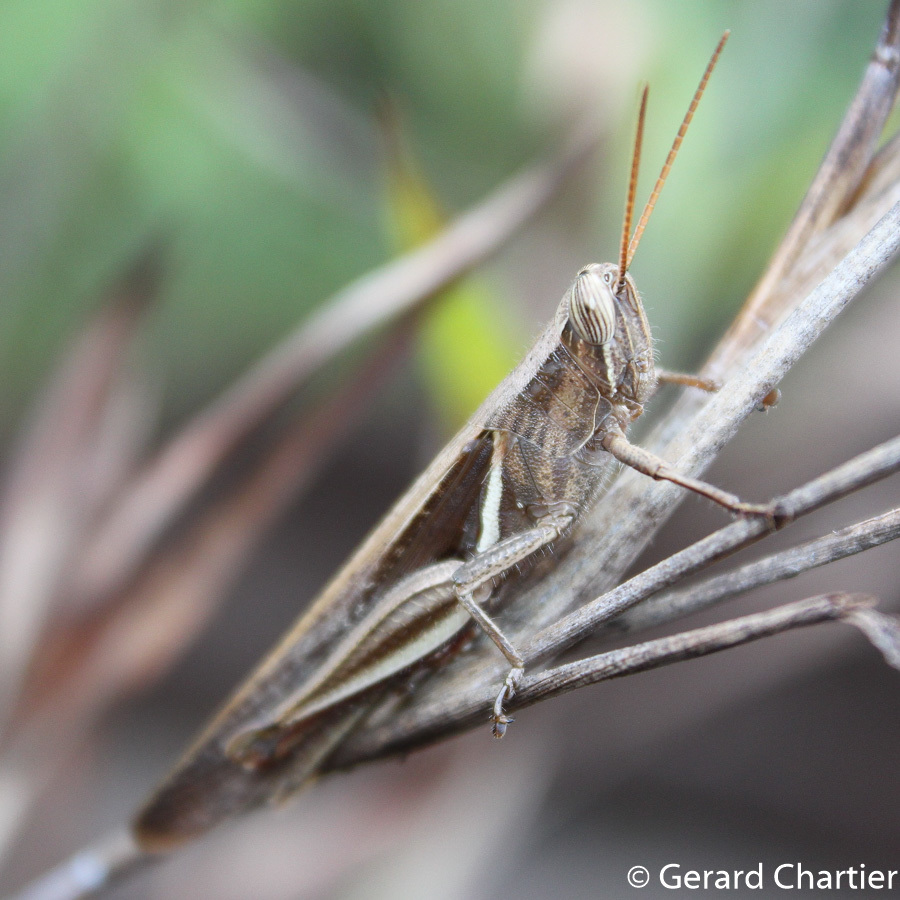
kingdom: Animalia
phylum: Arthropoda
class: Insecta
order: Orthoptera
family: Acrididae
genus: Stenocatantops
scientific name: Stenocatantops splendens
